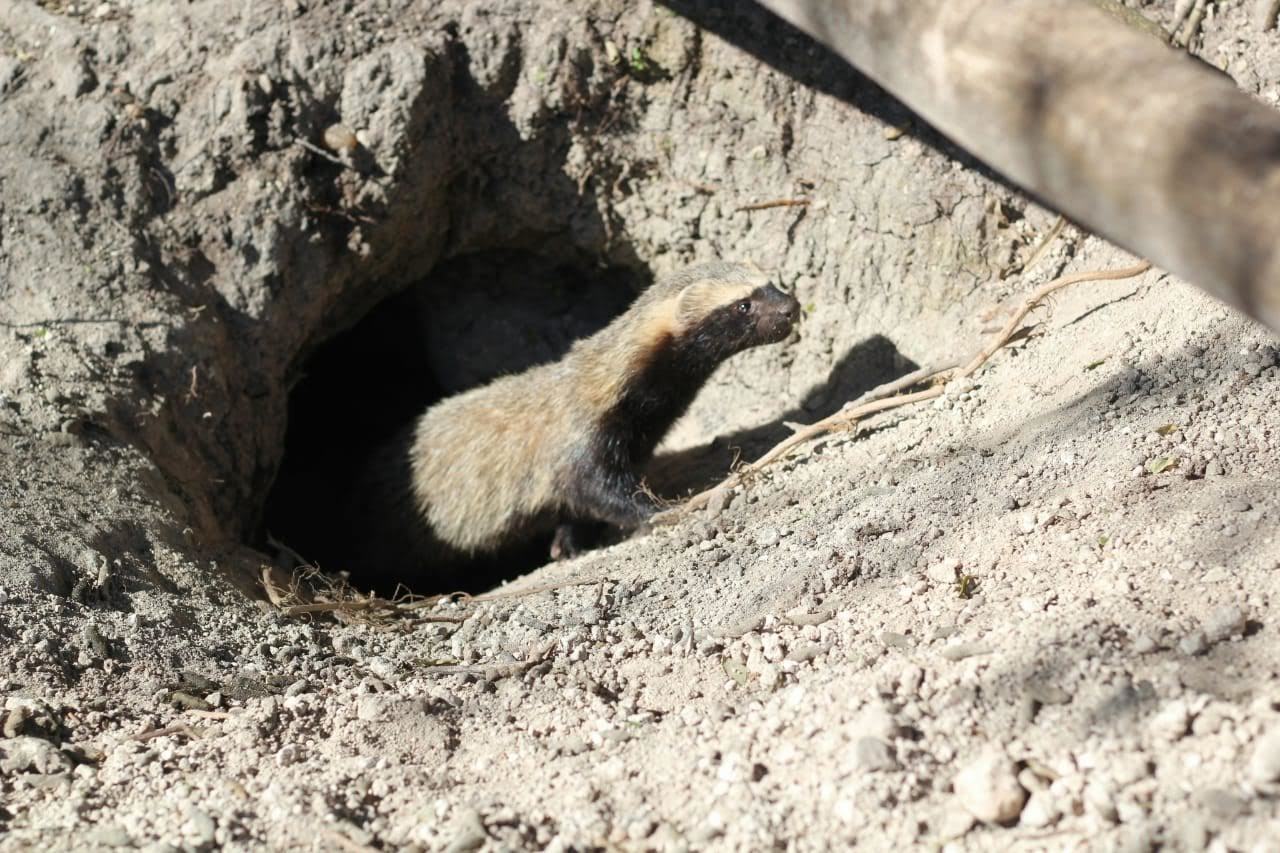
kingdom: Animalia
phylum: Chordata
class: Mammalia
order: Carnivora
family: Mustelidae
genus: Galictis
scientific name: Galictis cuja
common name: Lesser grison
